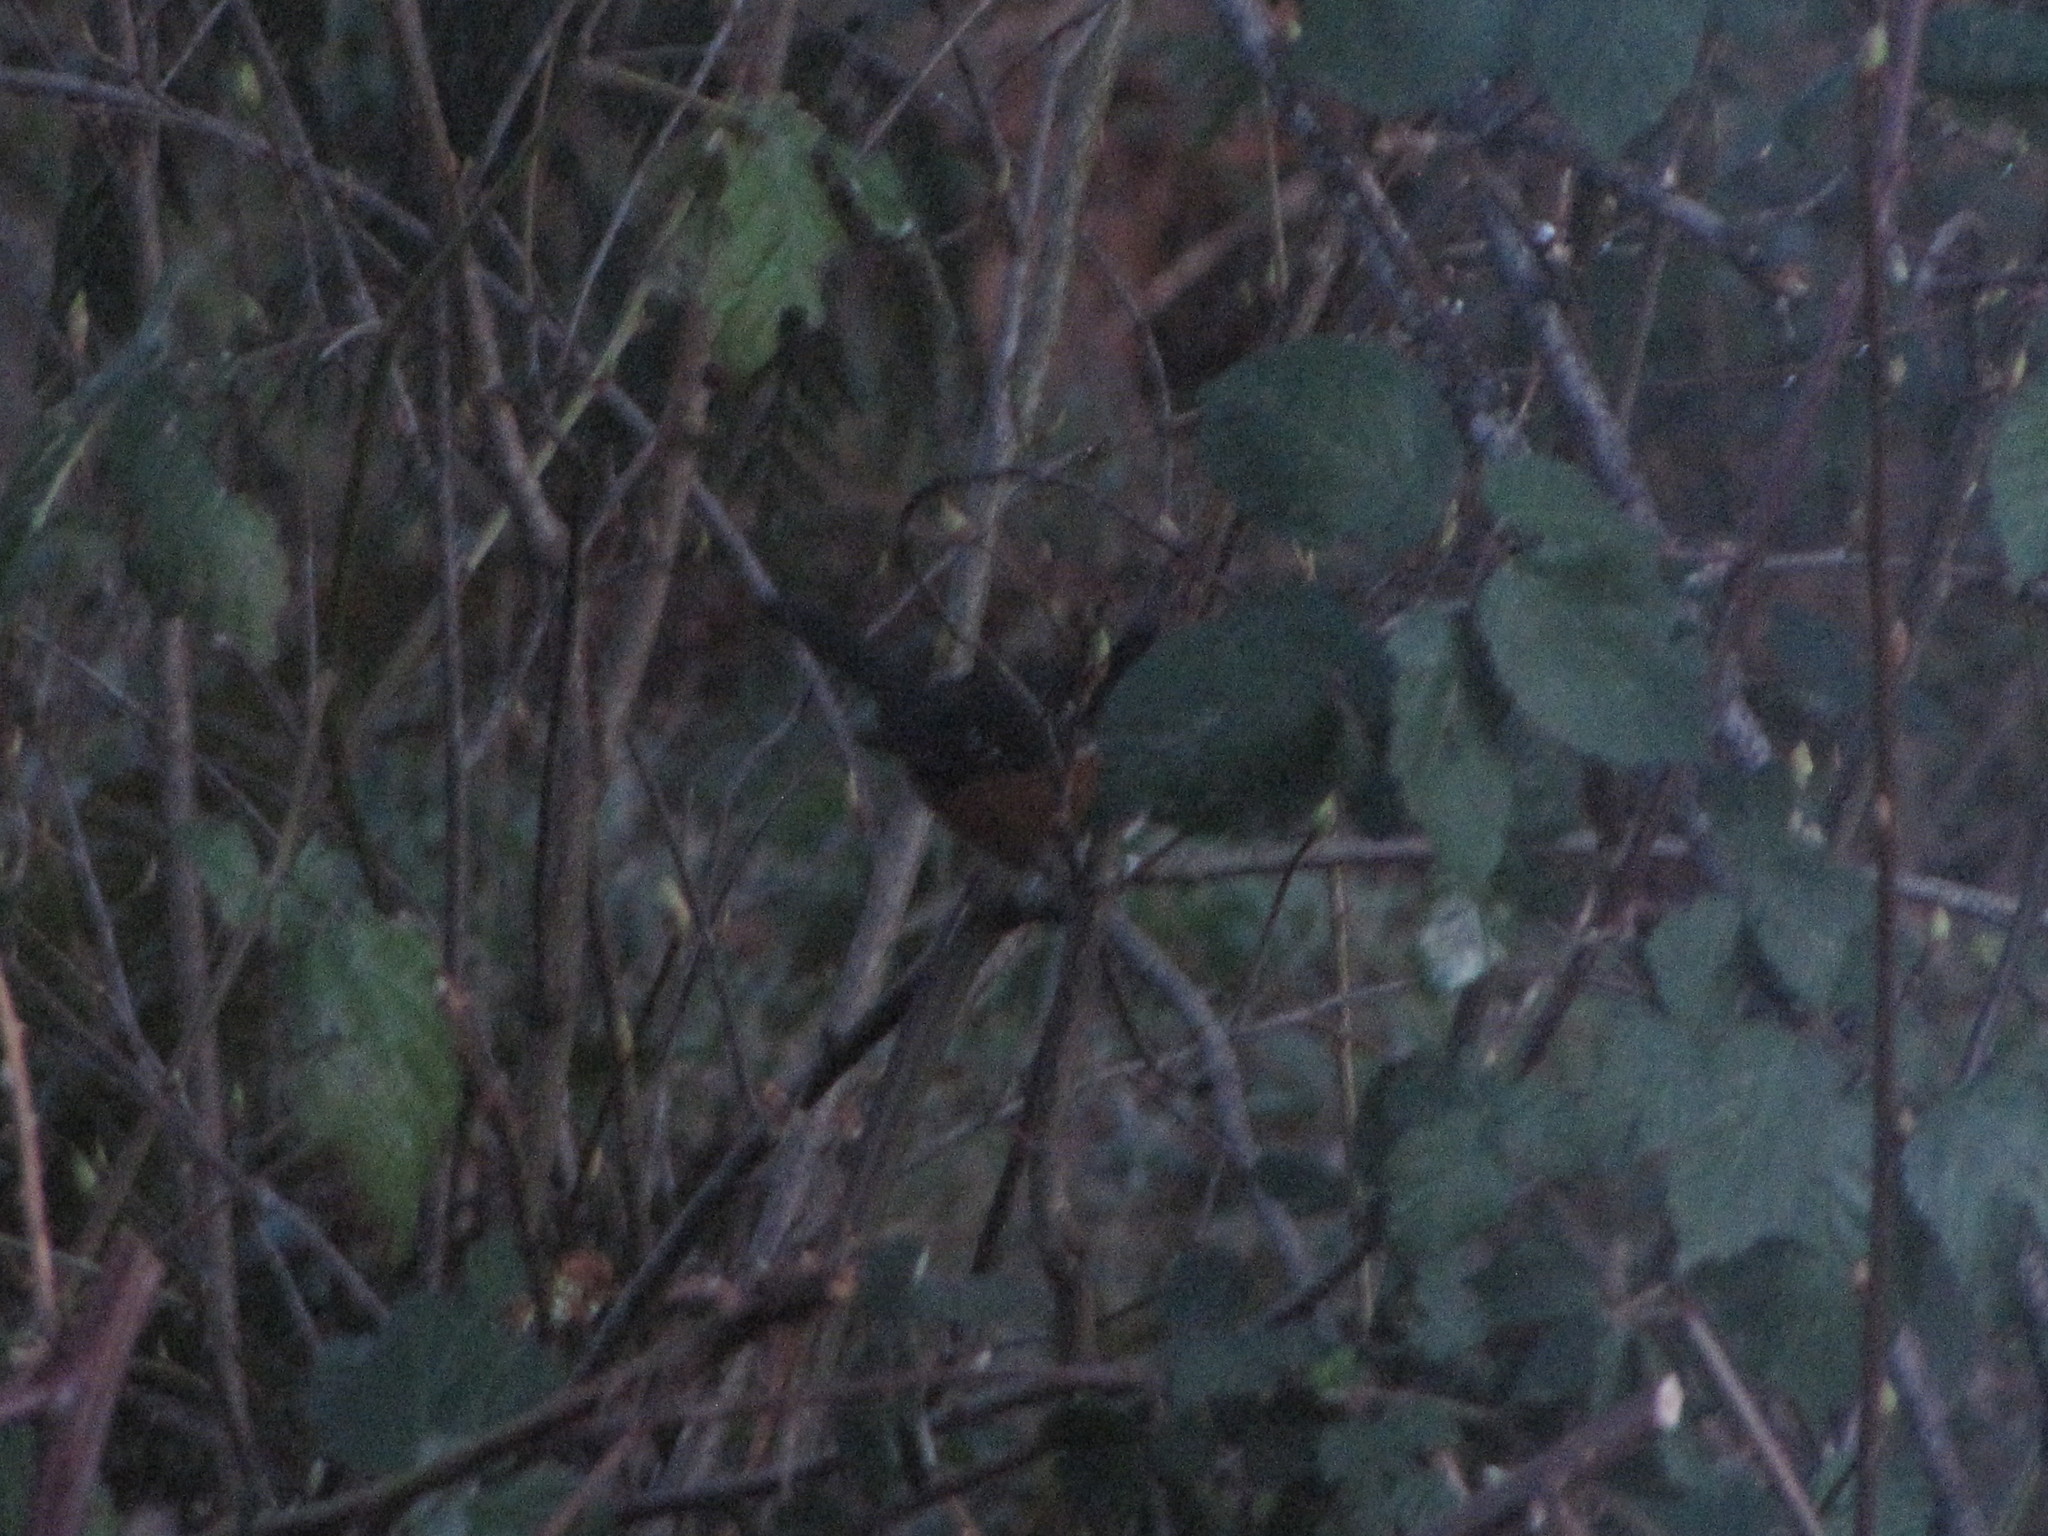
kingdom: Animalia
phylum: Chordata
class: Aves
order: Passeriformes
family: Passerellidae
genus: Pipilo
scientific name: Pipilo maculatus
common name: Spotted towhee
